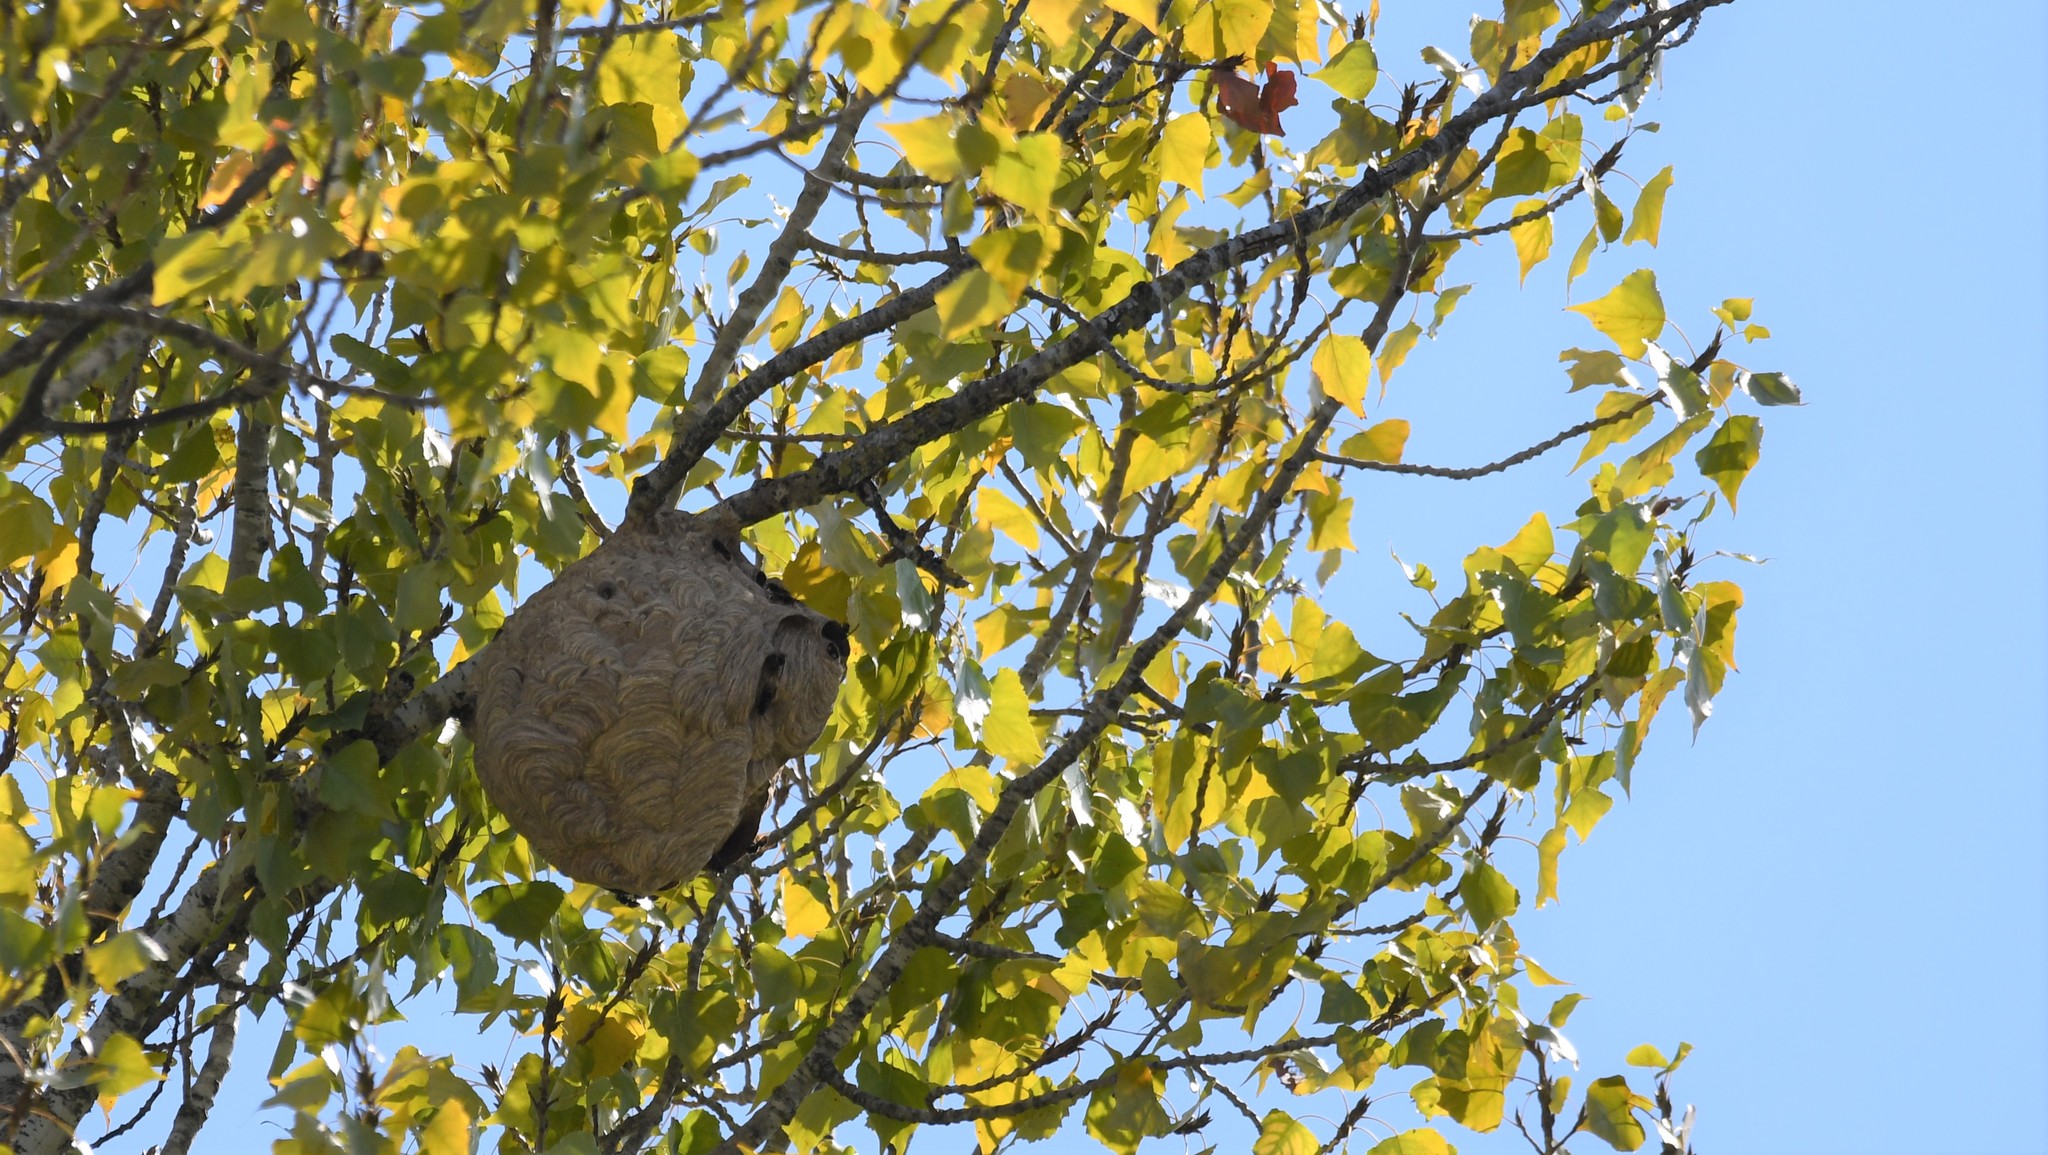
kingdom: Animalia
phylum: Arthropoda
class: Insecta
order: Hymenoptera
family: Vespidae
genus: Vespa
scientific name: Vespa velutina
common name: Asian hornet
